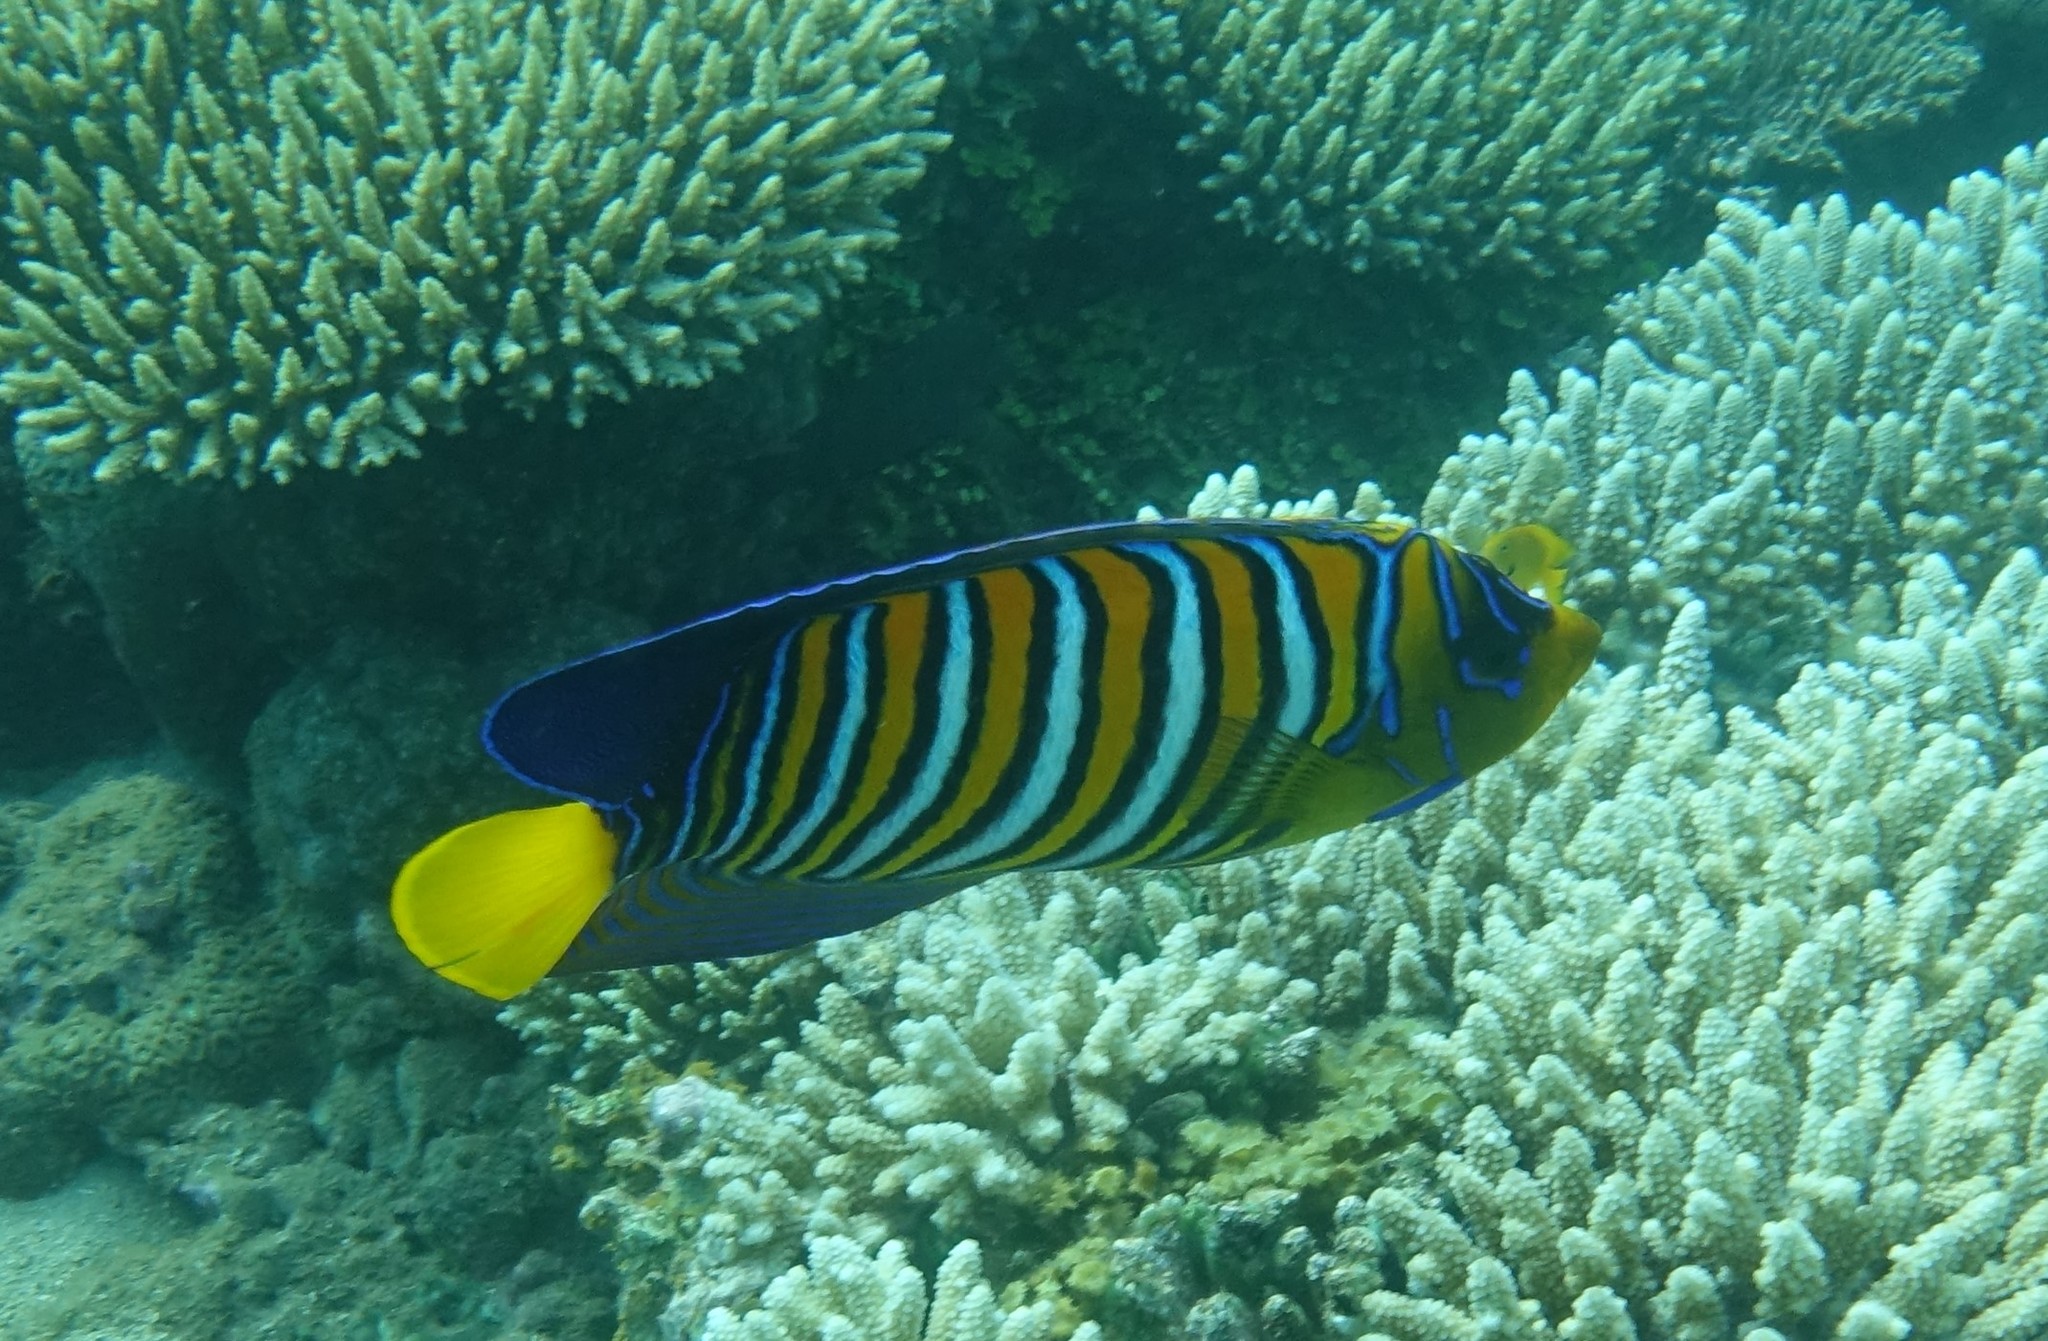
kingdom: Animalia
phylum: Chordata
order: Perciformes
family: Pomacanthidae
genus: Pygoplites
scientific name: Pygoplites diacanthus
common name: Regal angelfish
